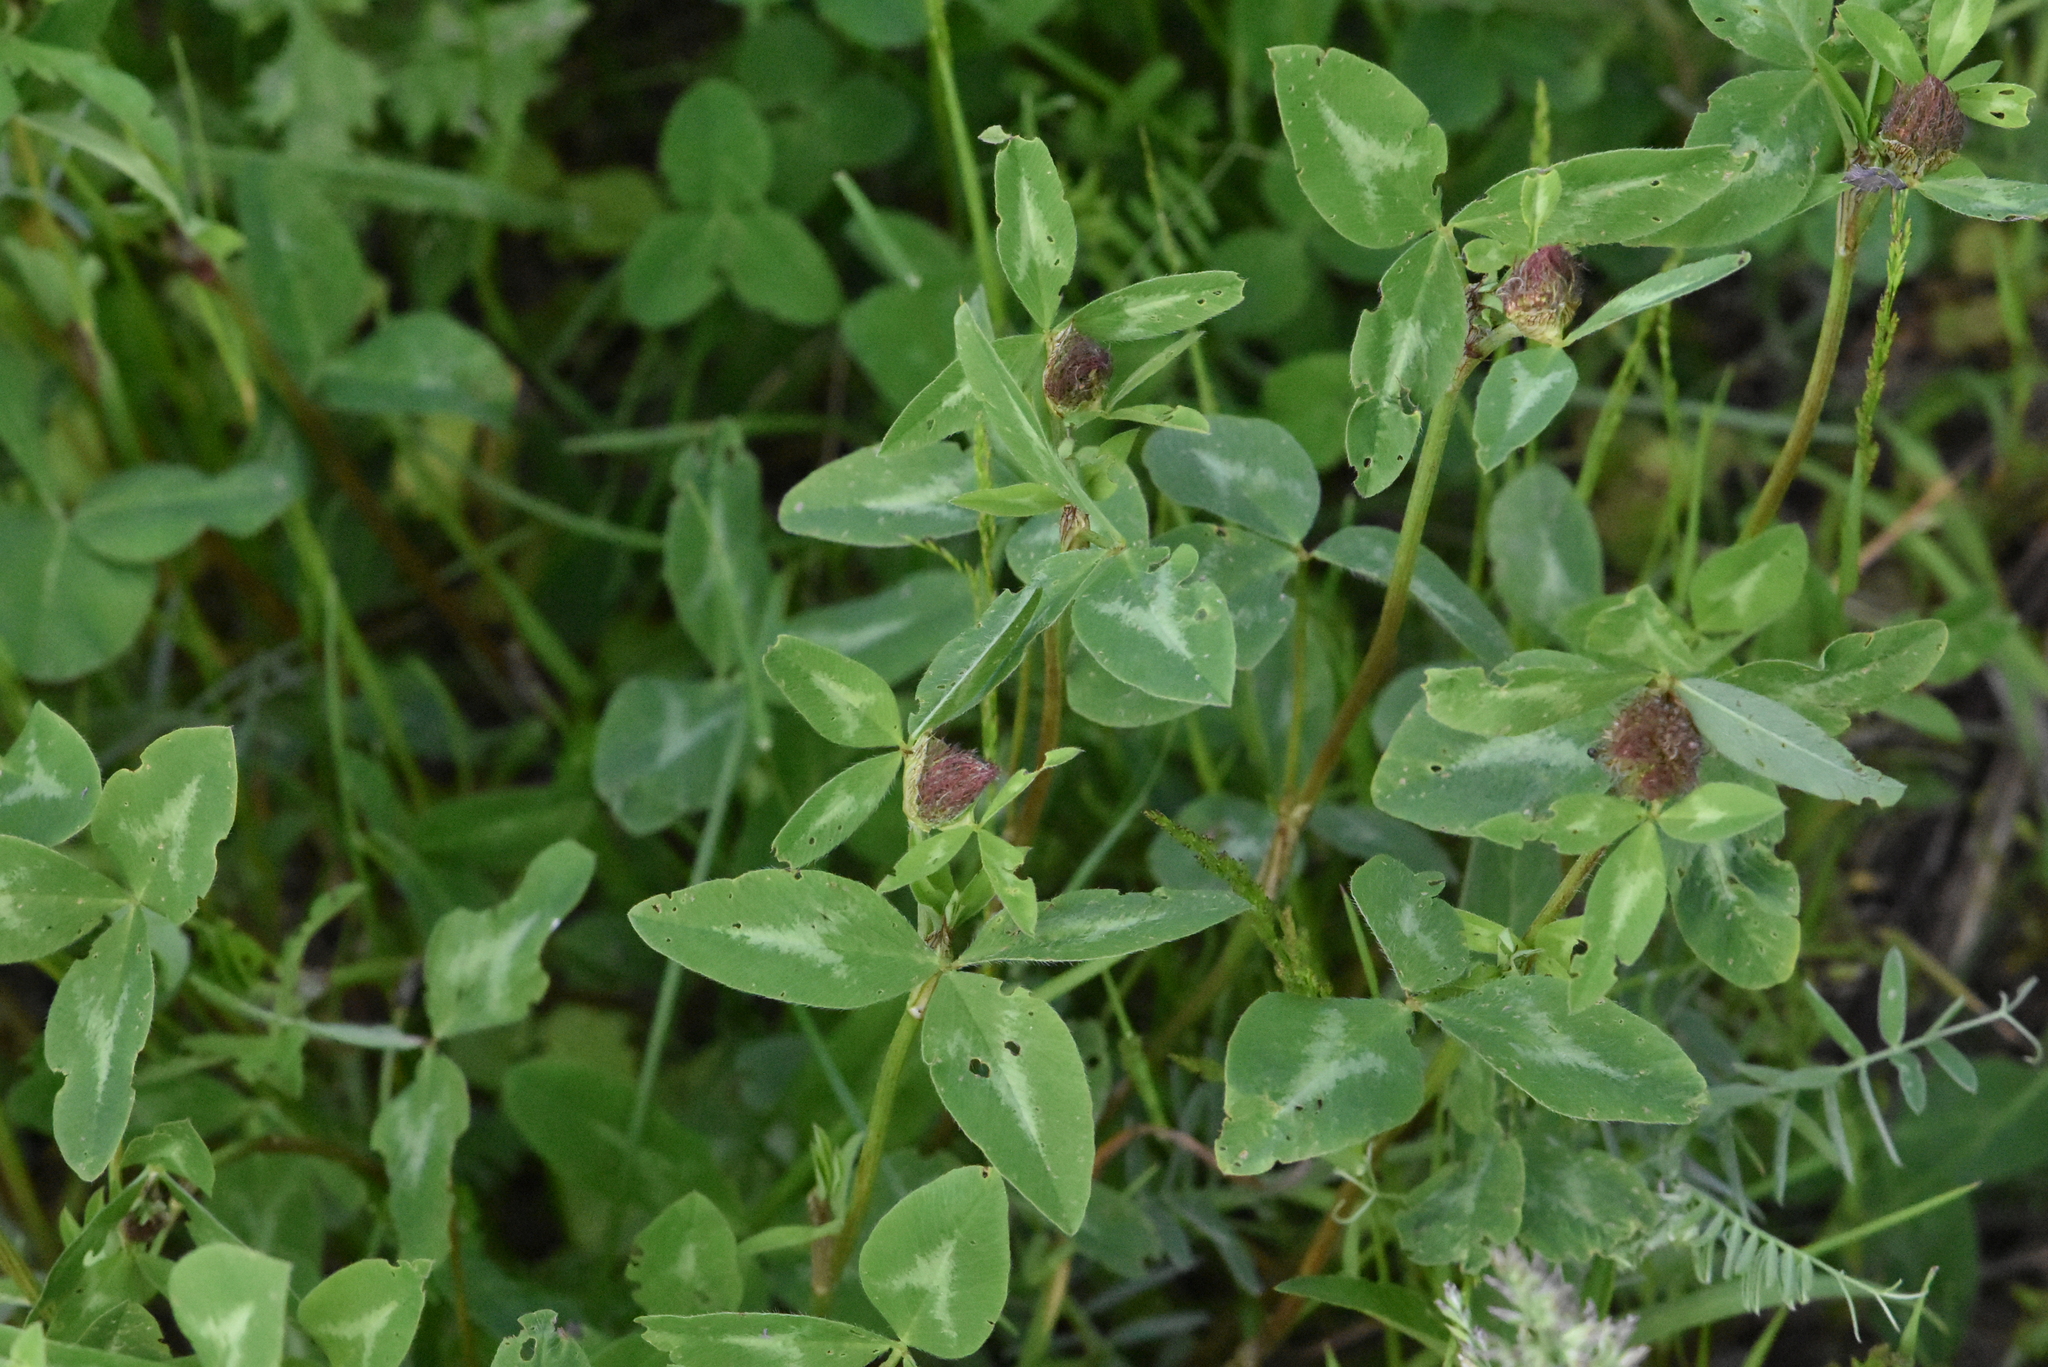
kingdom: Plantae
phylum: Tracheophyta
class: Magnoliopsida
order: Fabales
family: Fabaceae
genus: Trifolium
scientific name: Trifolium pratense
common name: Red clover
